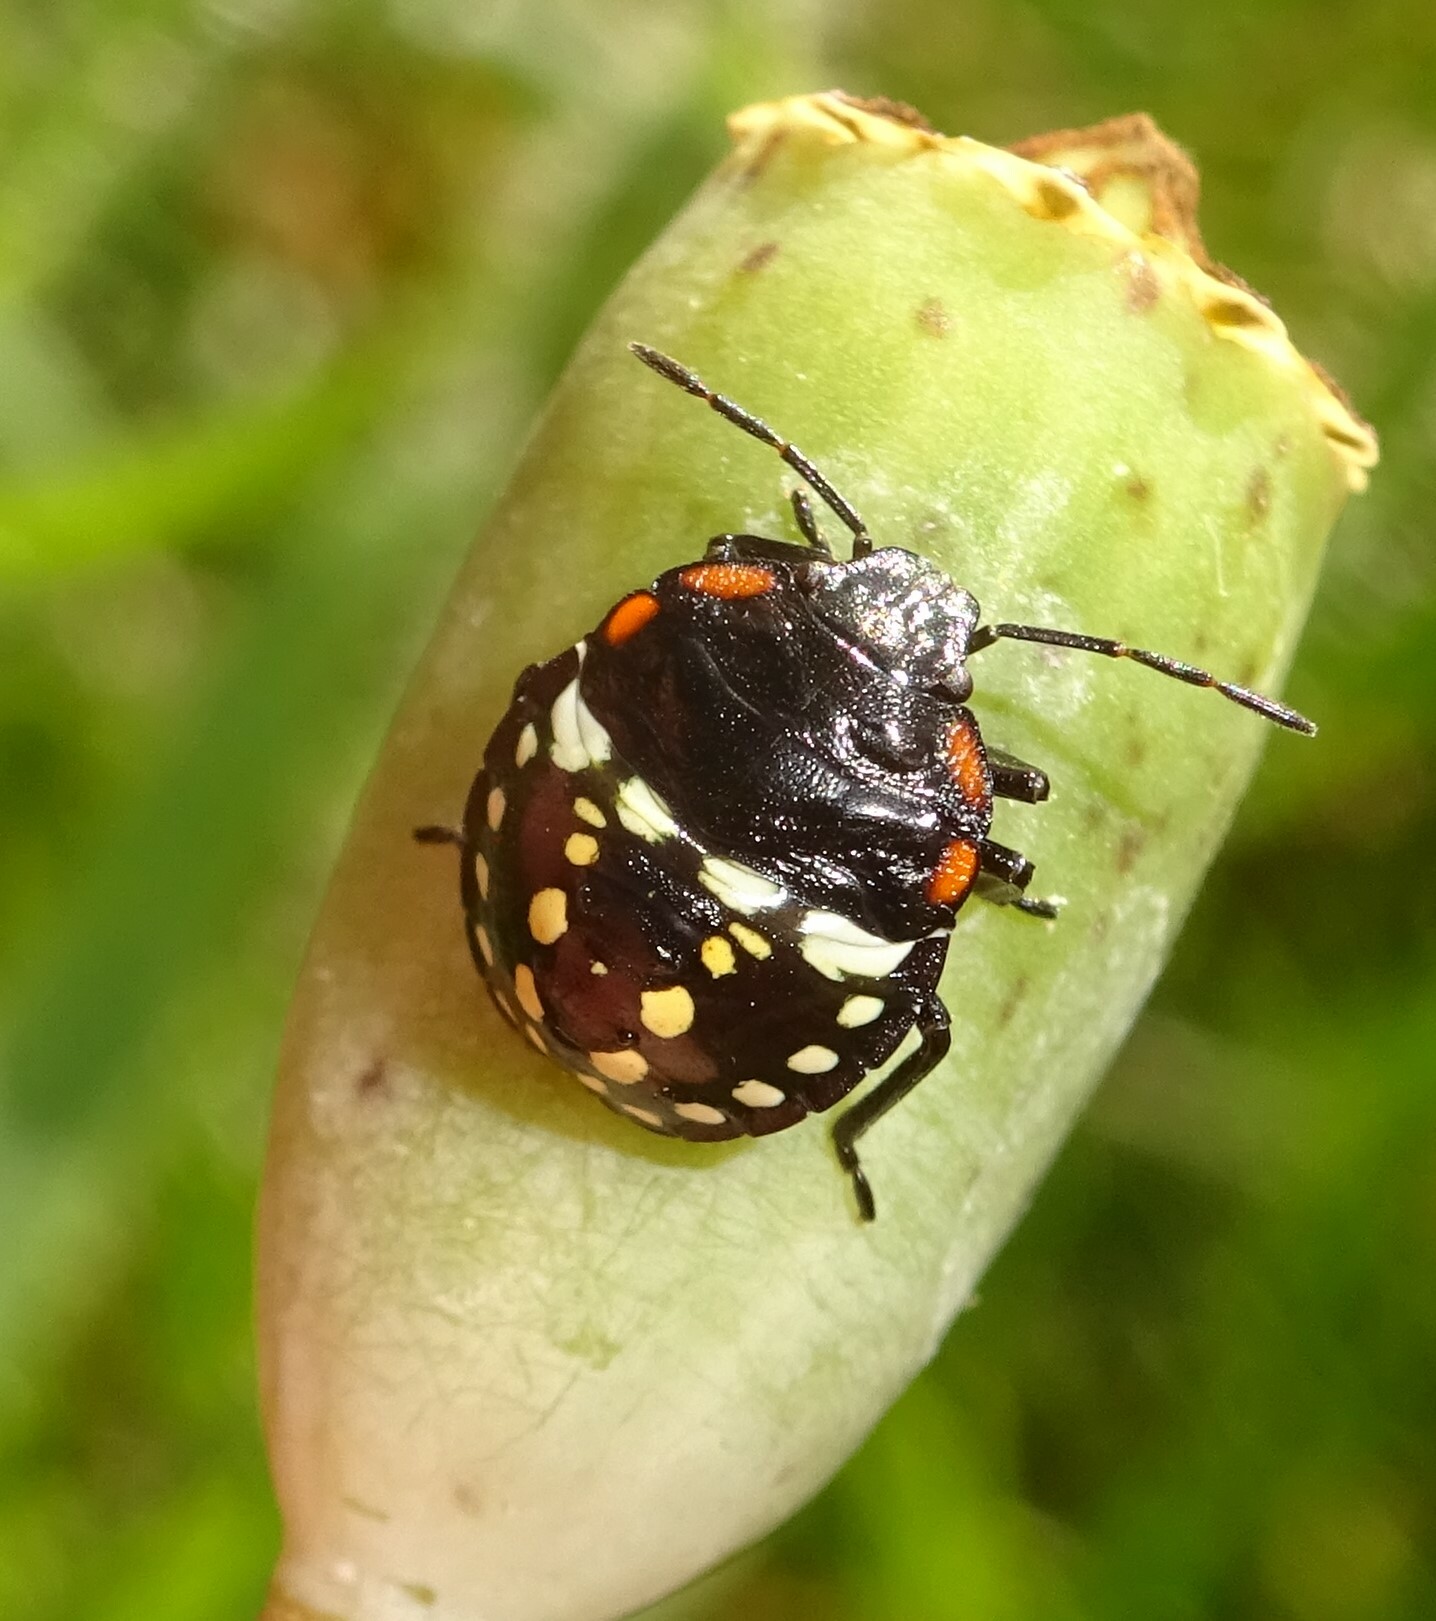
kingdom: Animalia
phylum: Arthropoda
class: Insecta
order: Hemiptera
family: Pentatomidae
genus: Nezara
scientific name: Nezara viridula
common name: Southern green stink bug
